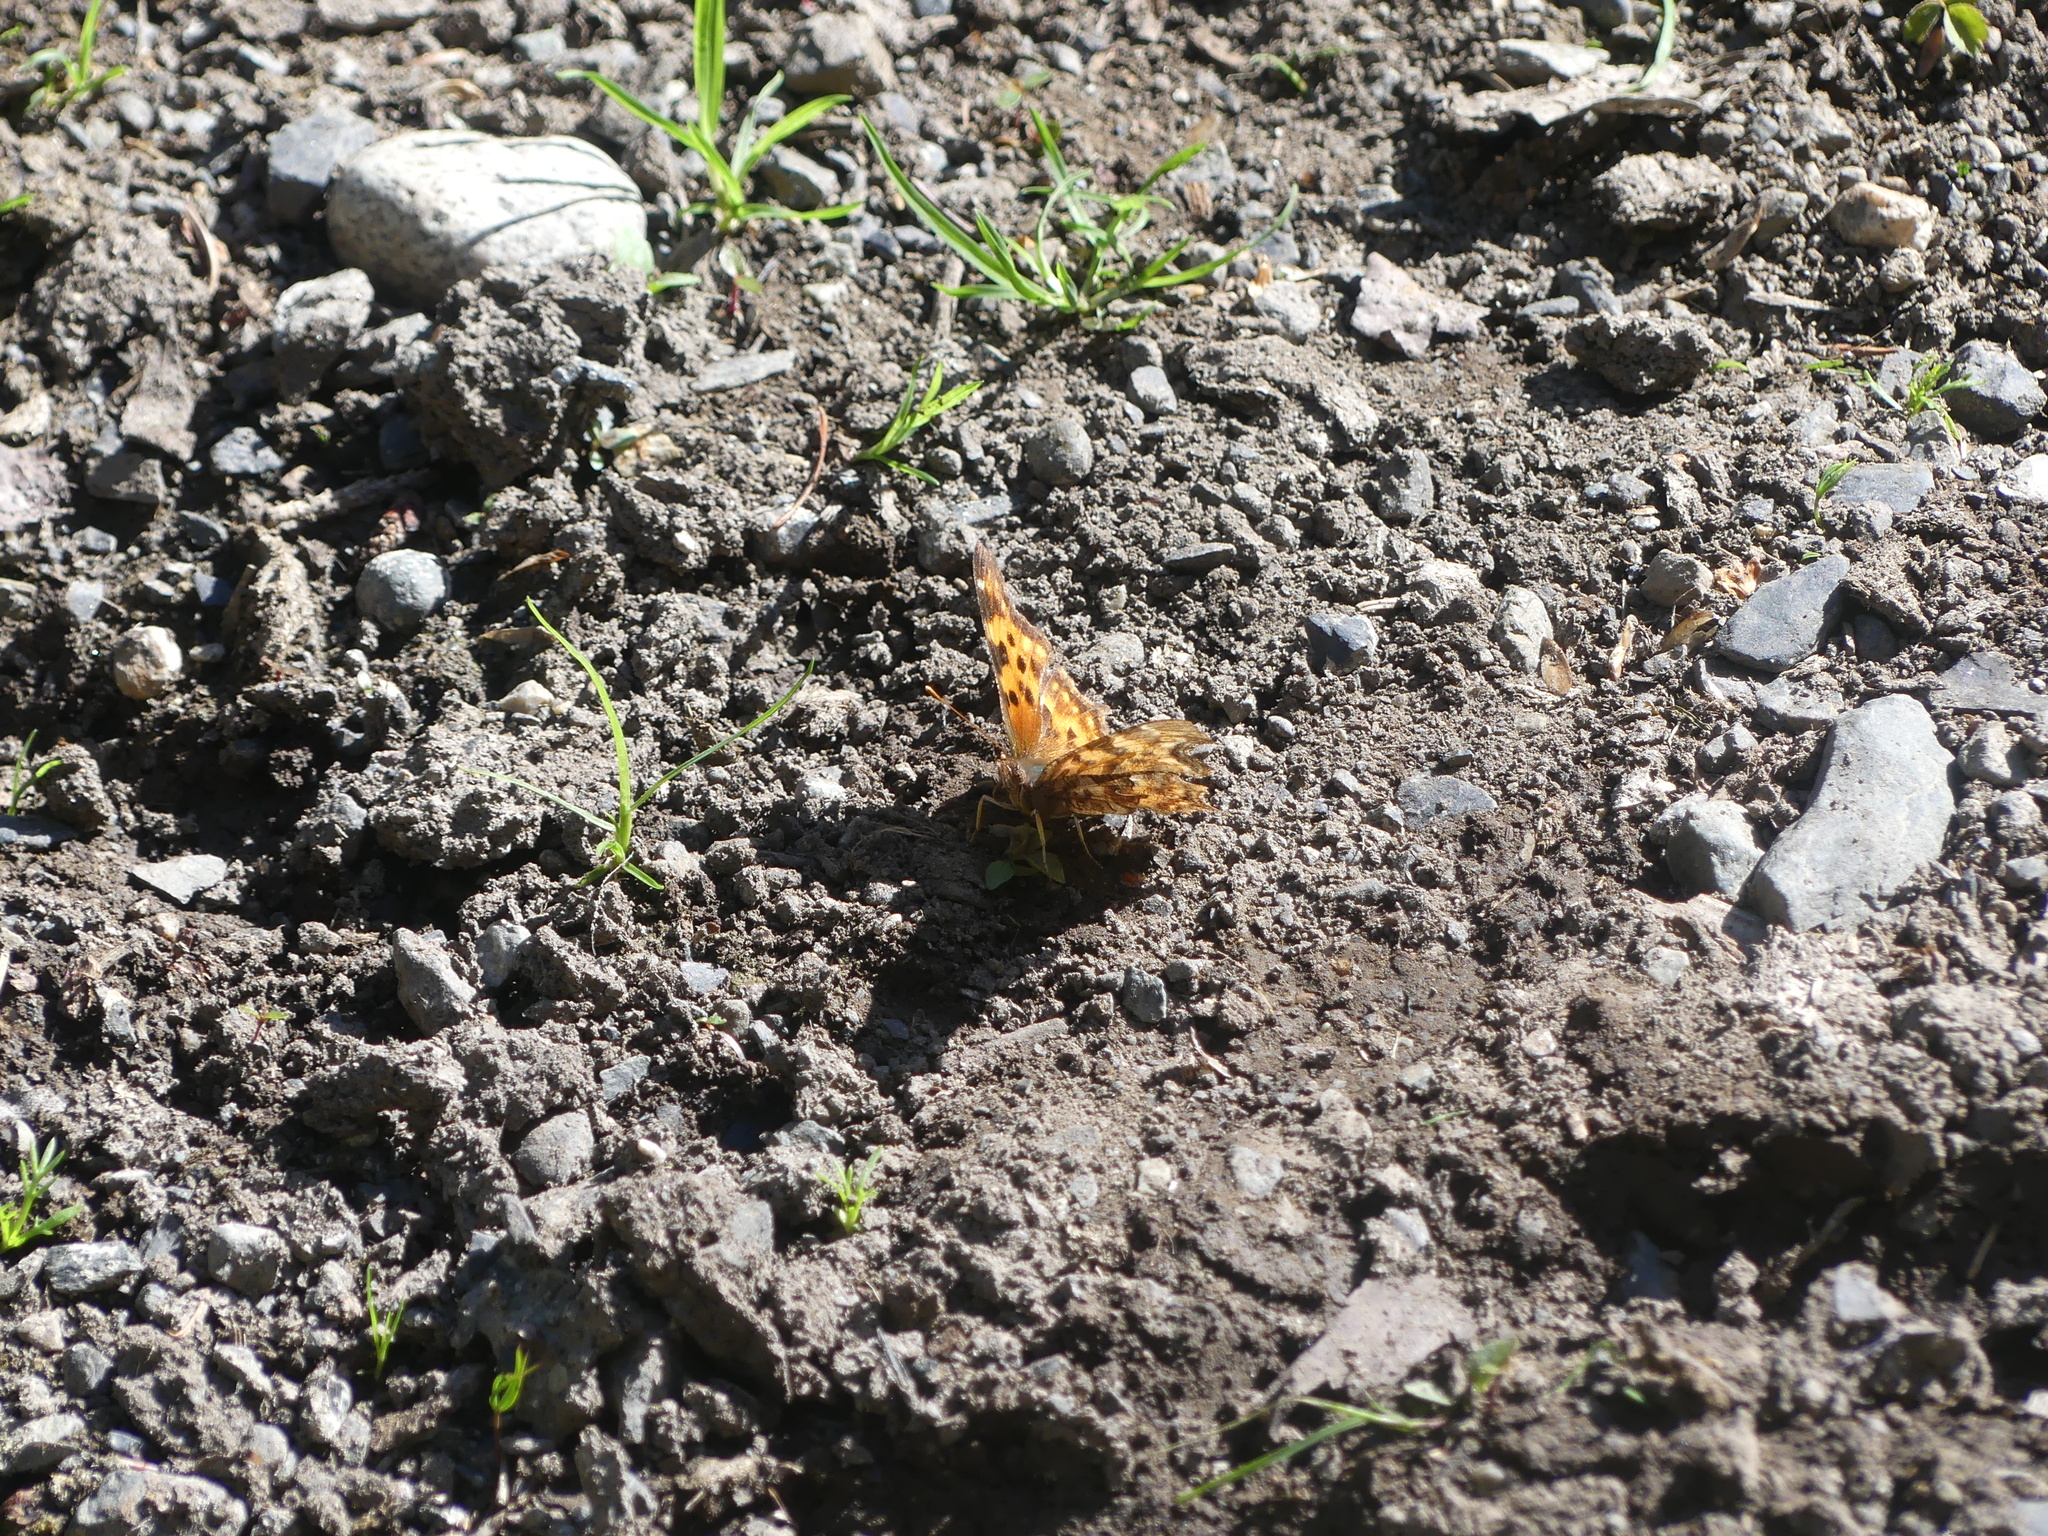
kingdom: Animalia
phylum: Arthropoda
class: Insecta
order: Lepidoptera
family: Nymphalidae
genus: Polygonia
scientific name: Polygonia satyrus
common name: Satyr angle wing
